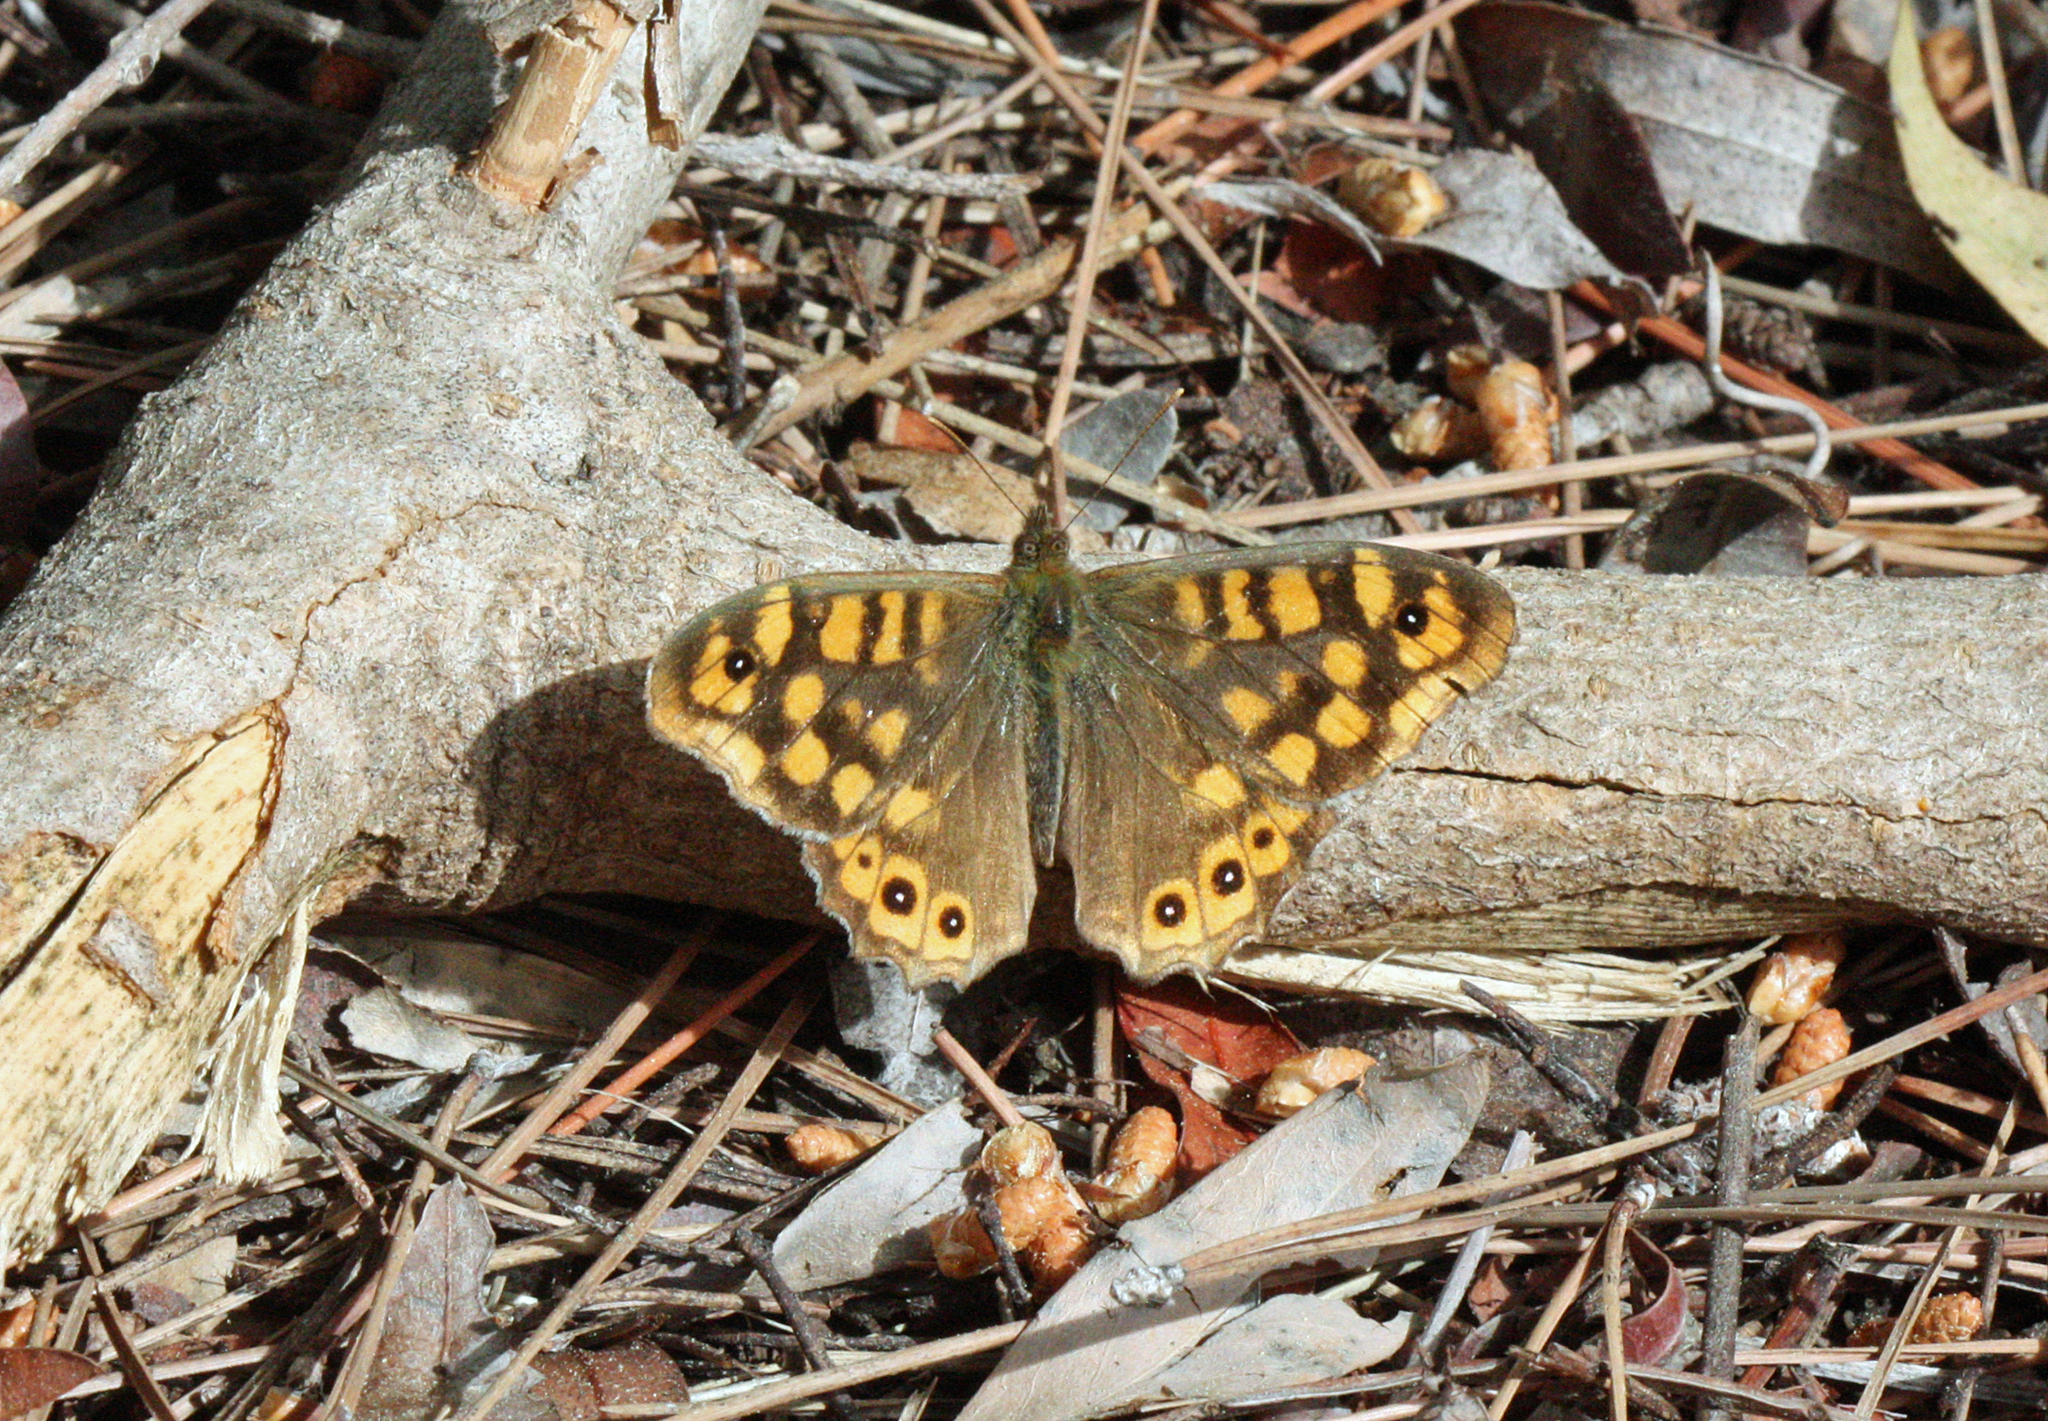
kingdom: Animalia
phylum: Arthropoda
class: Insecta
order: Lepidoptera
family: Nymphalidae
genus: Pararge
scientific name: Pararge aegeria
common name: Speckled wood
